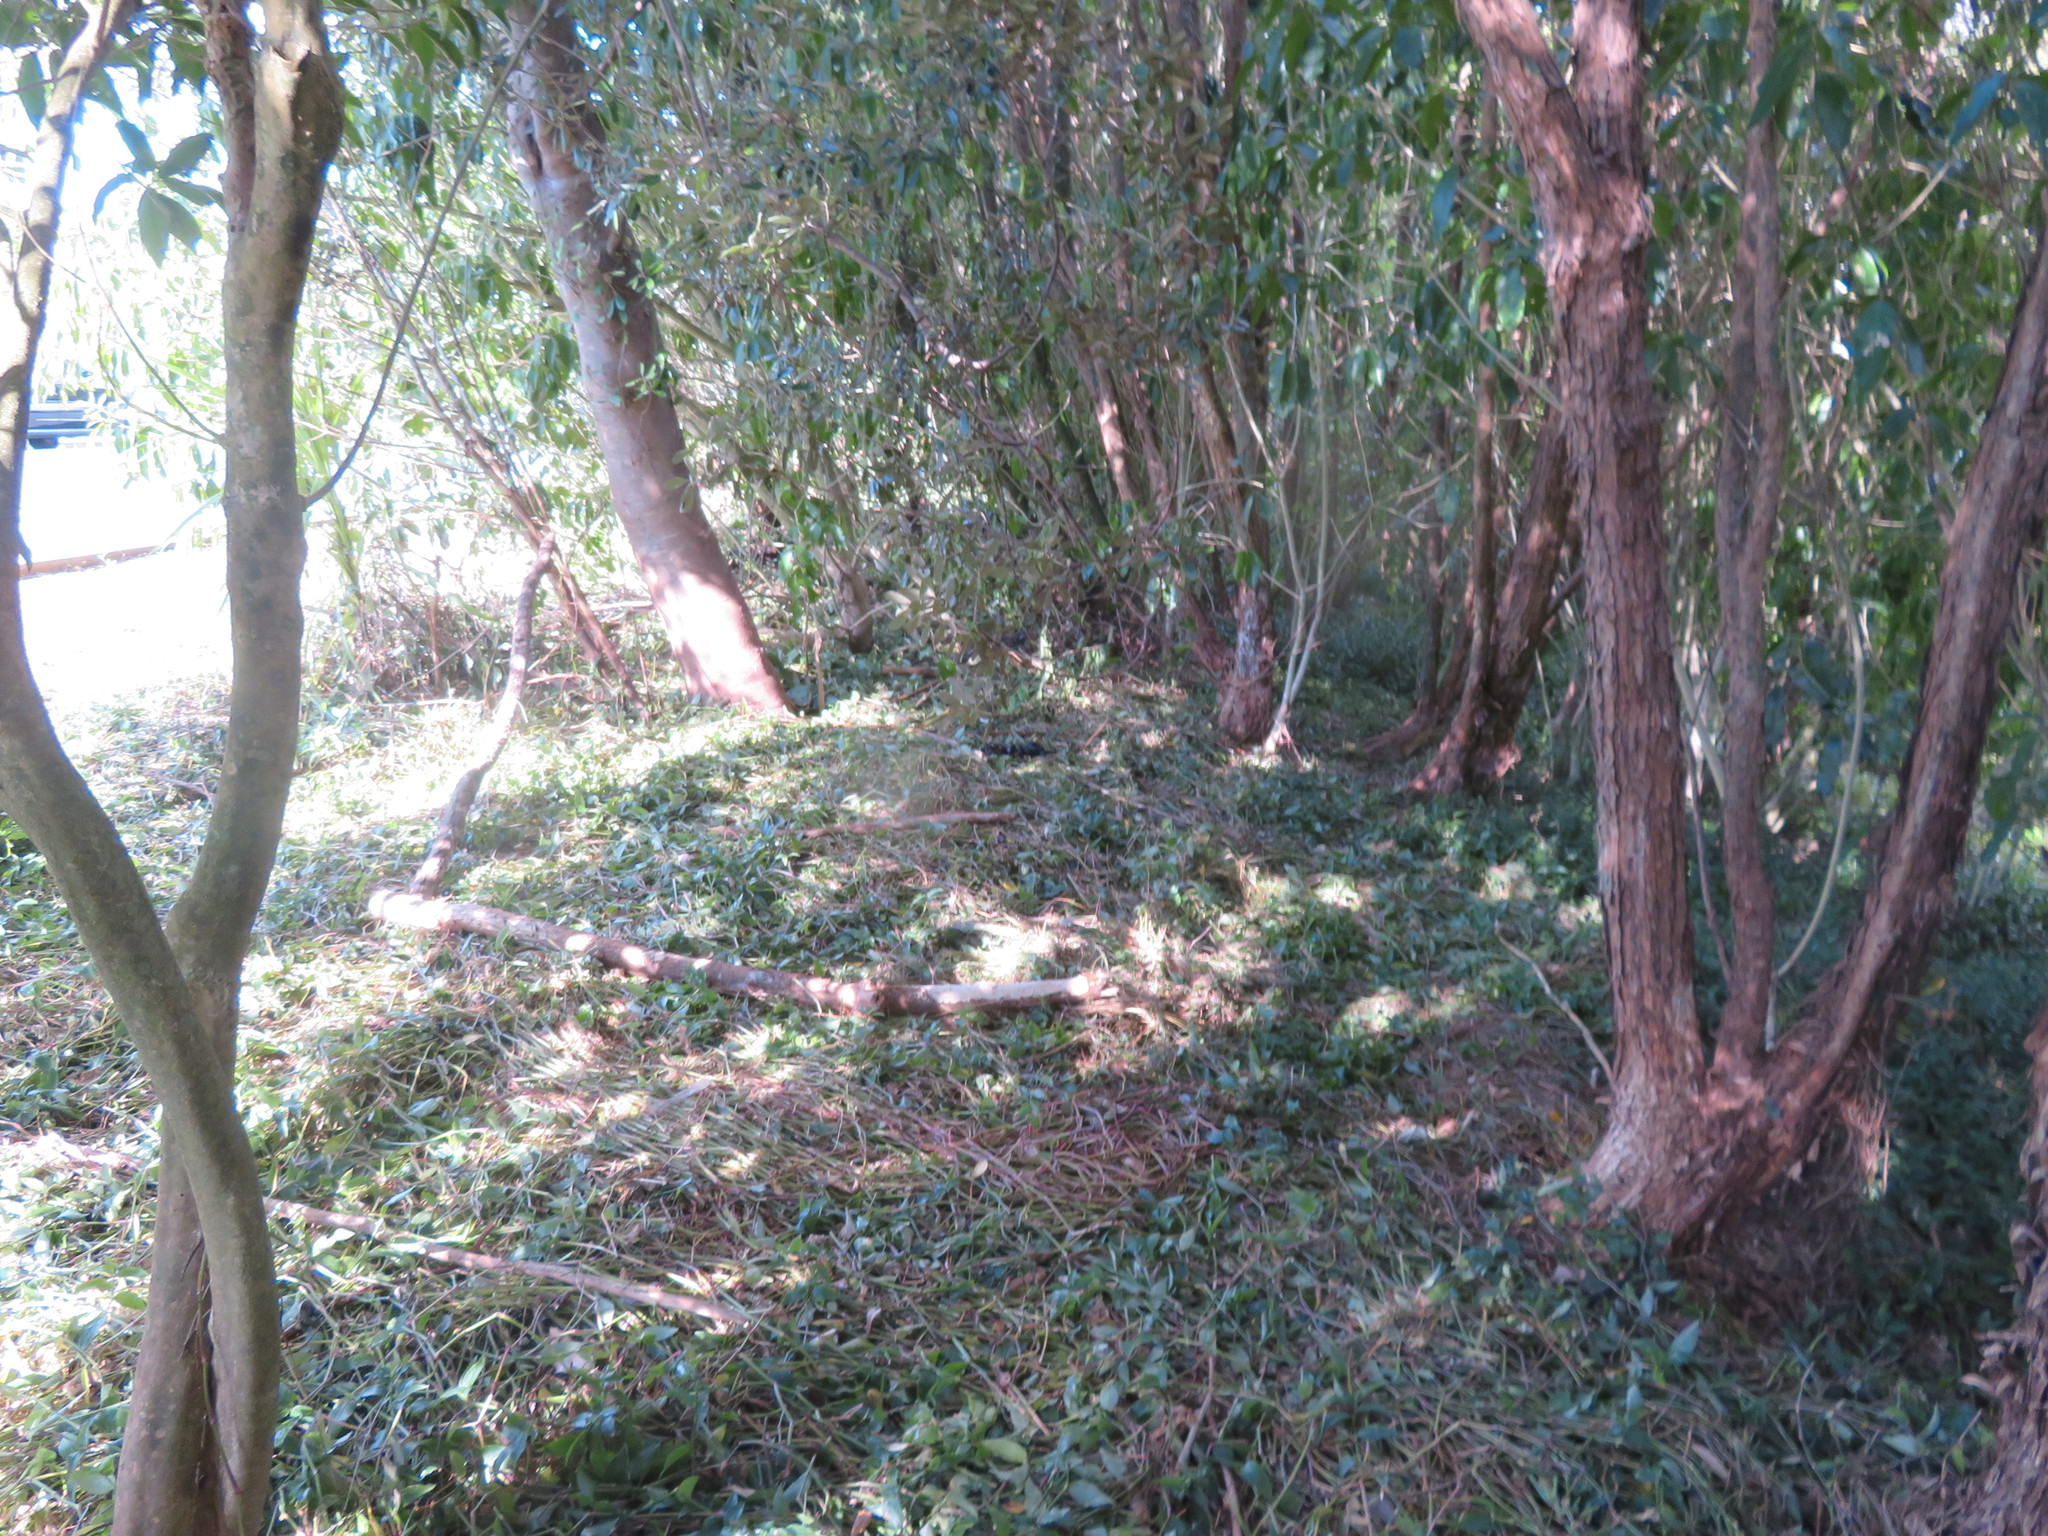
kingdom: Plantae
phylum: Tracheophyta
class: Liliopsida
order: Commelinales
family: Commelinaceae
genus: Tradescantia
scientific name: Tradescantia fluminensis
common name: Wandering-jew
